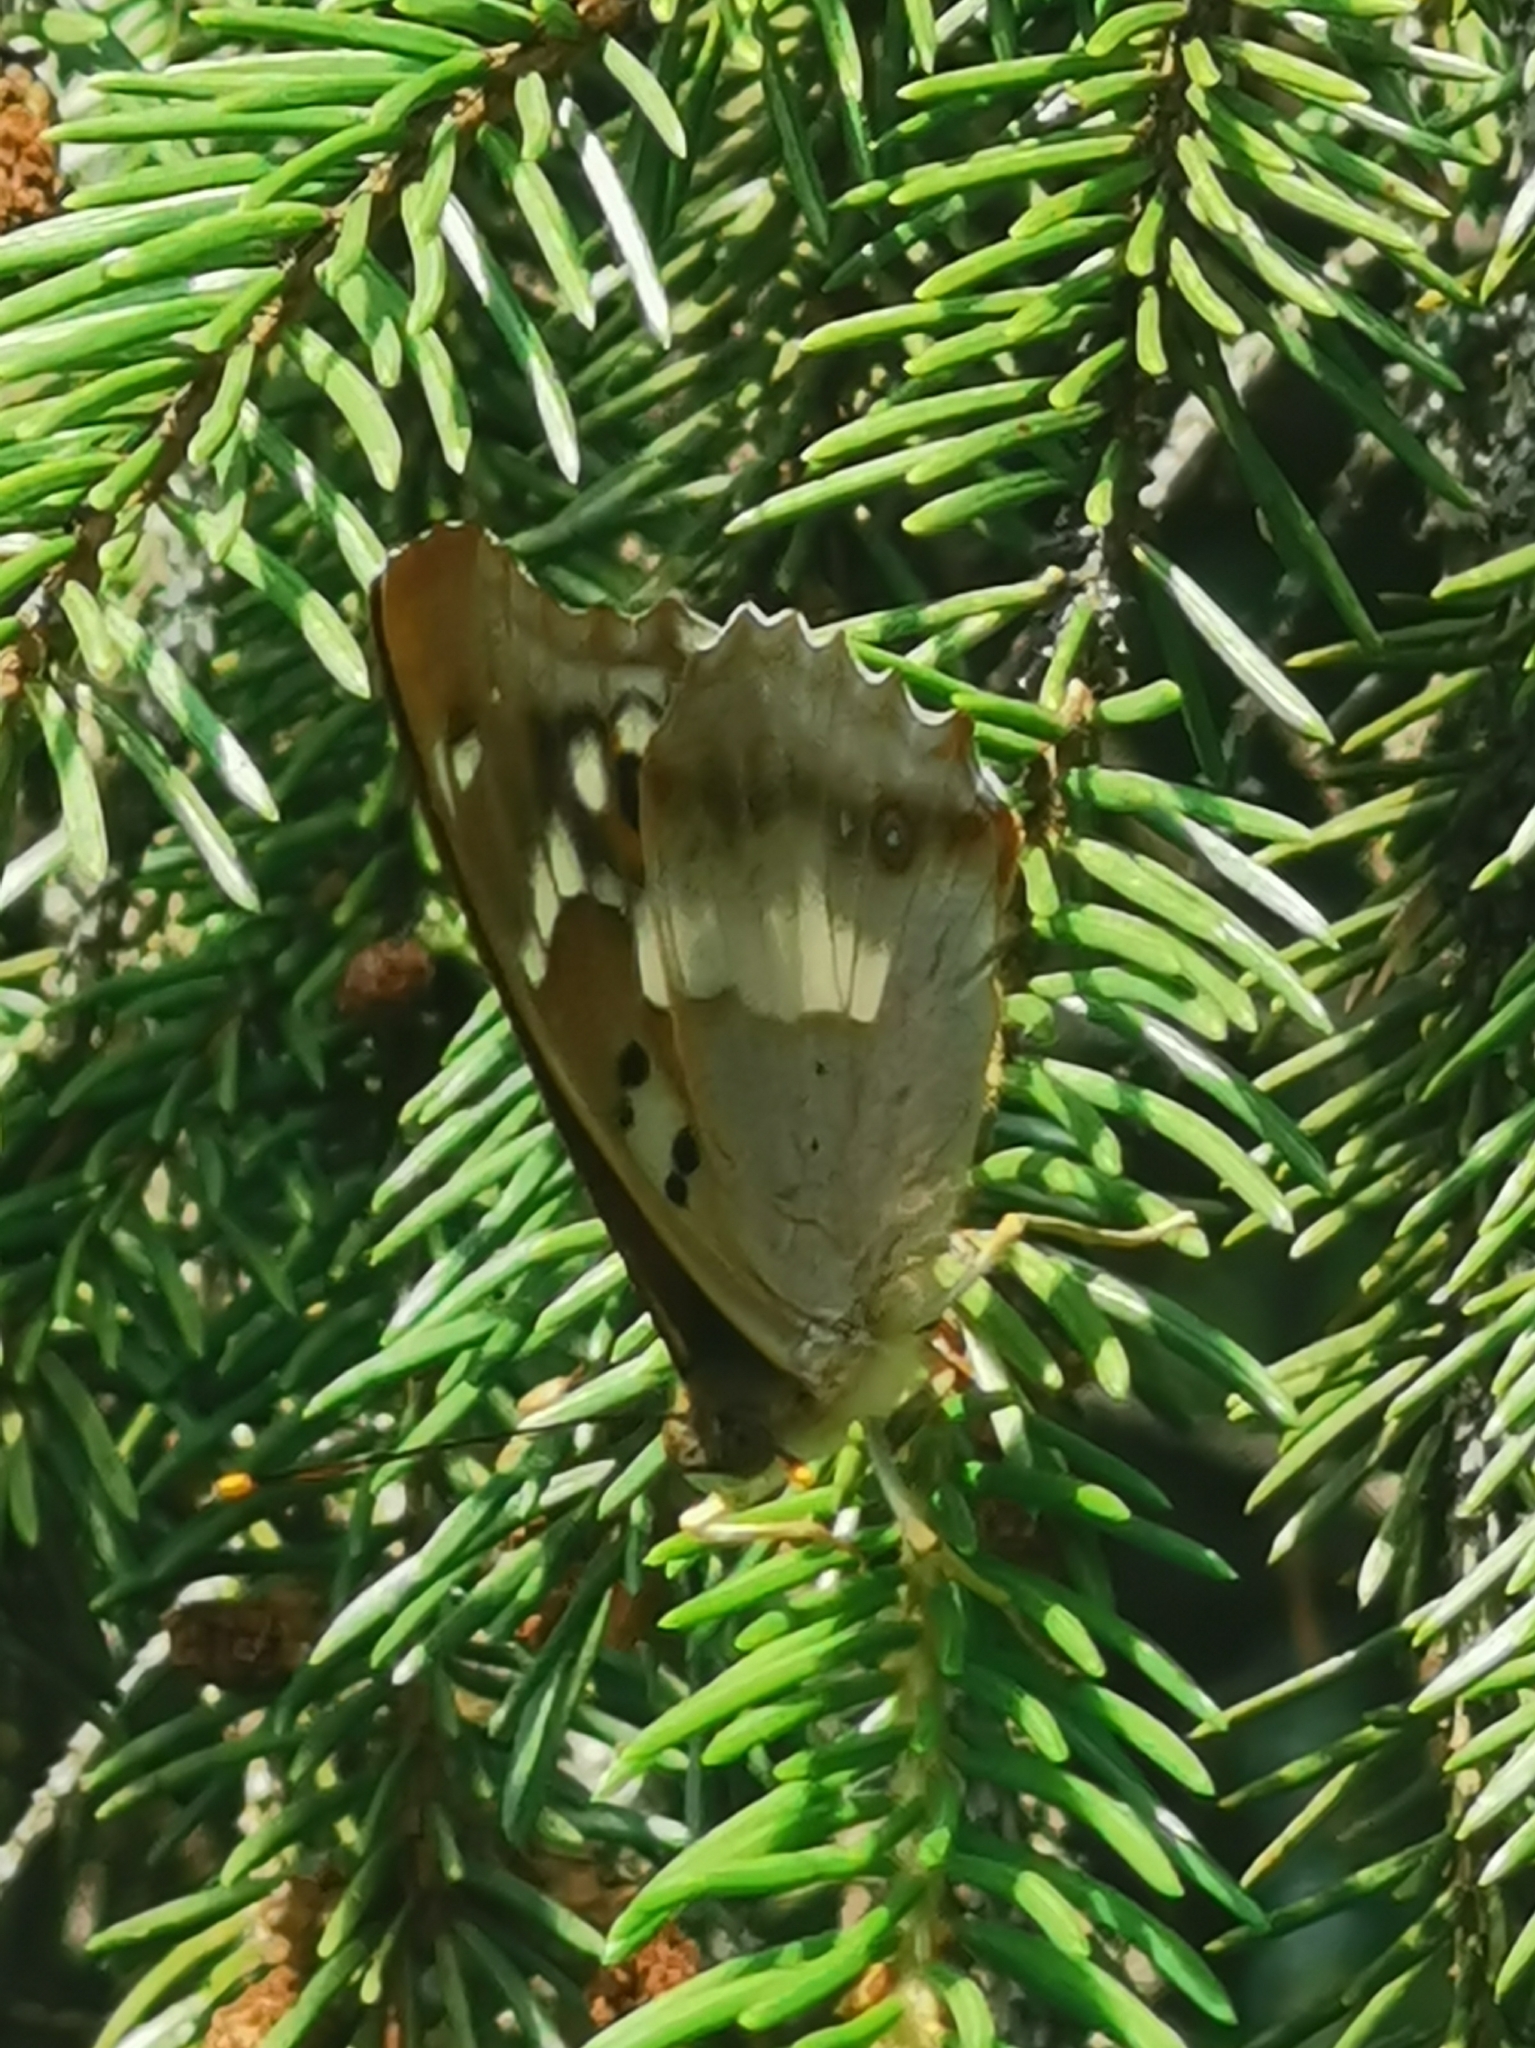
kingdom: Animalia
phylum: Arthropoda
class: Insecta
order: Lepidoptera
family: Nymphalidae
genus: Apatura
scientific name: Apatura ilia
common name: Lesser purple emperor
